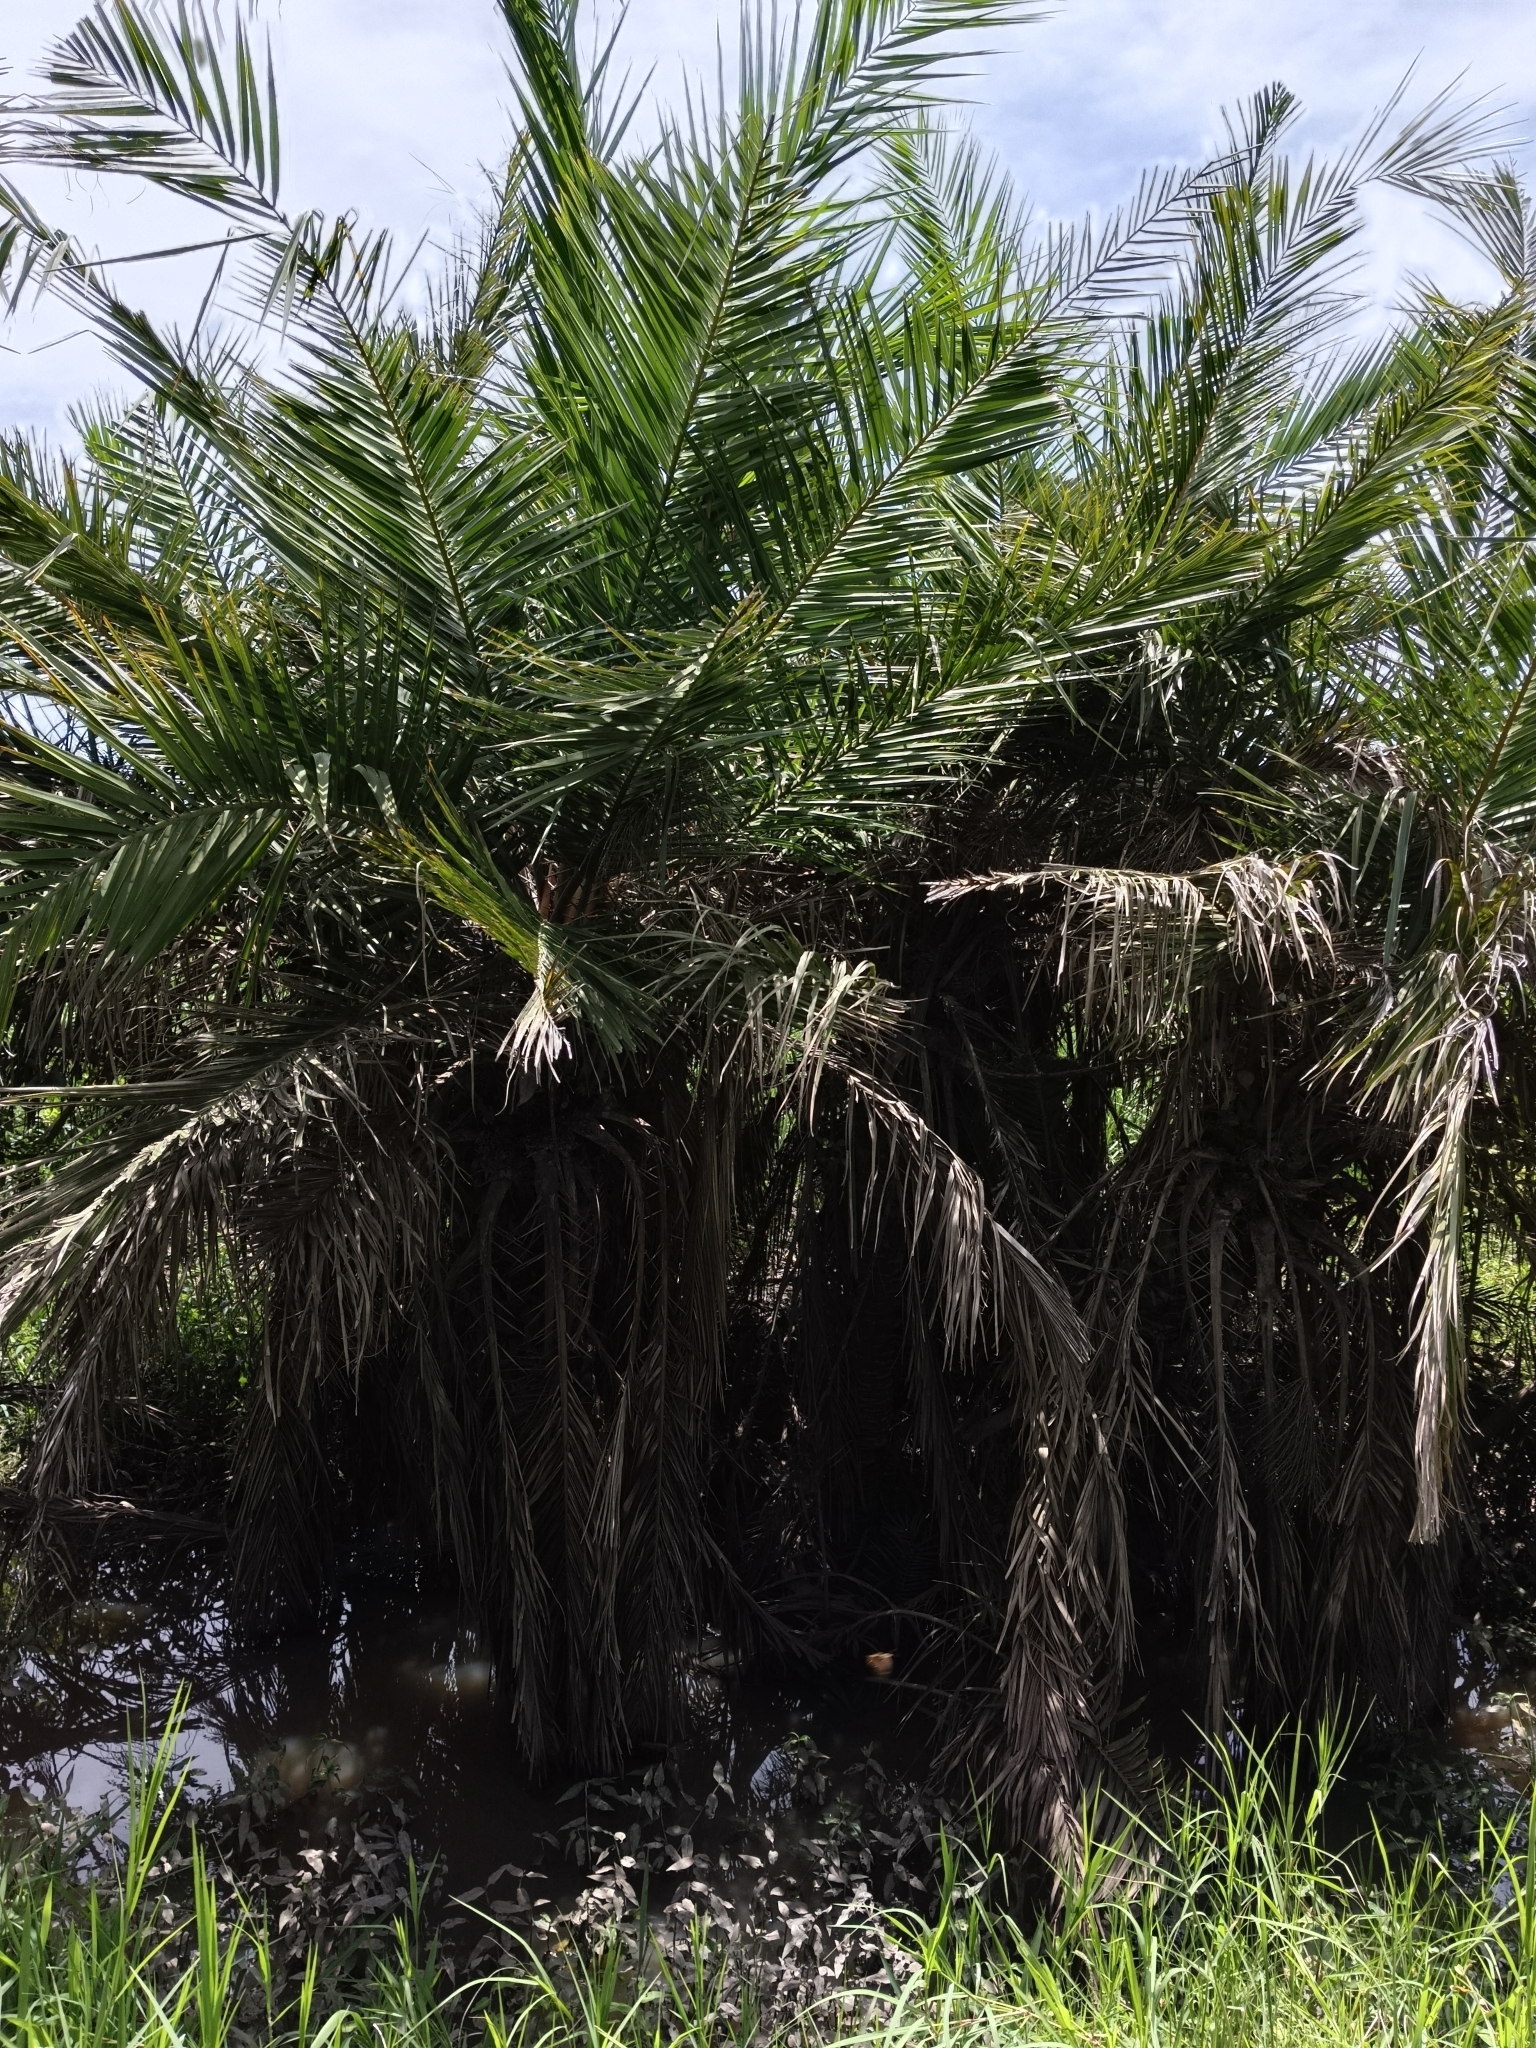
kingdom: Plantae
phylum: Tracheophyta
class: Liliopsida
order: Arecales
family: Arecaceae
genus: Phoenix
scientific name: Phoenix reclinata
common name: Senegal date palm
